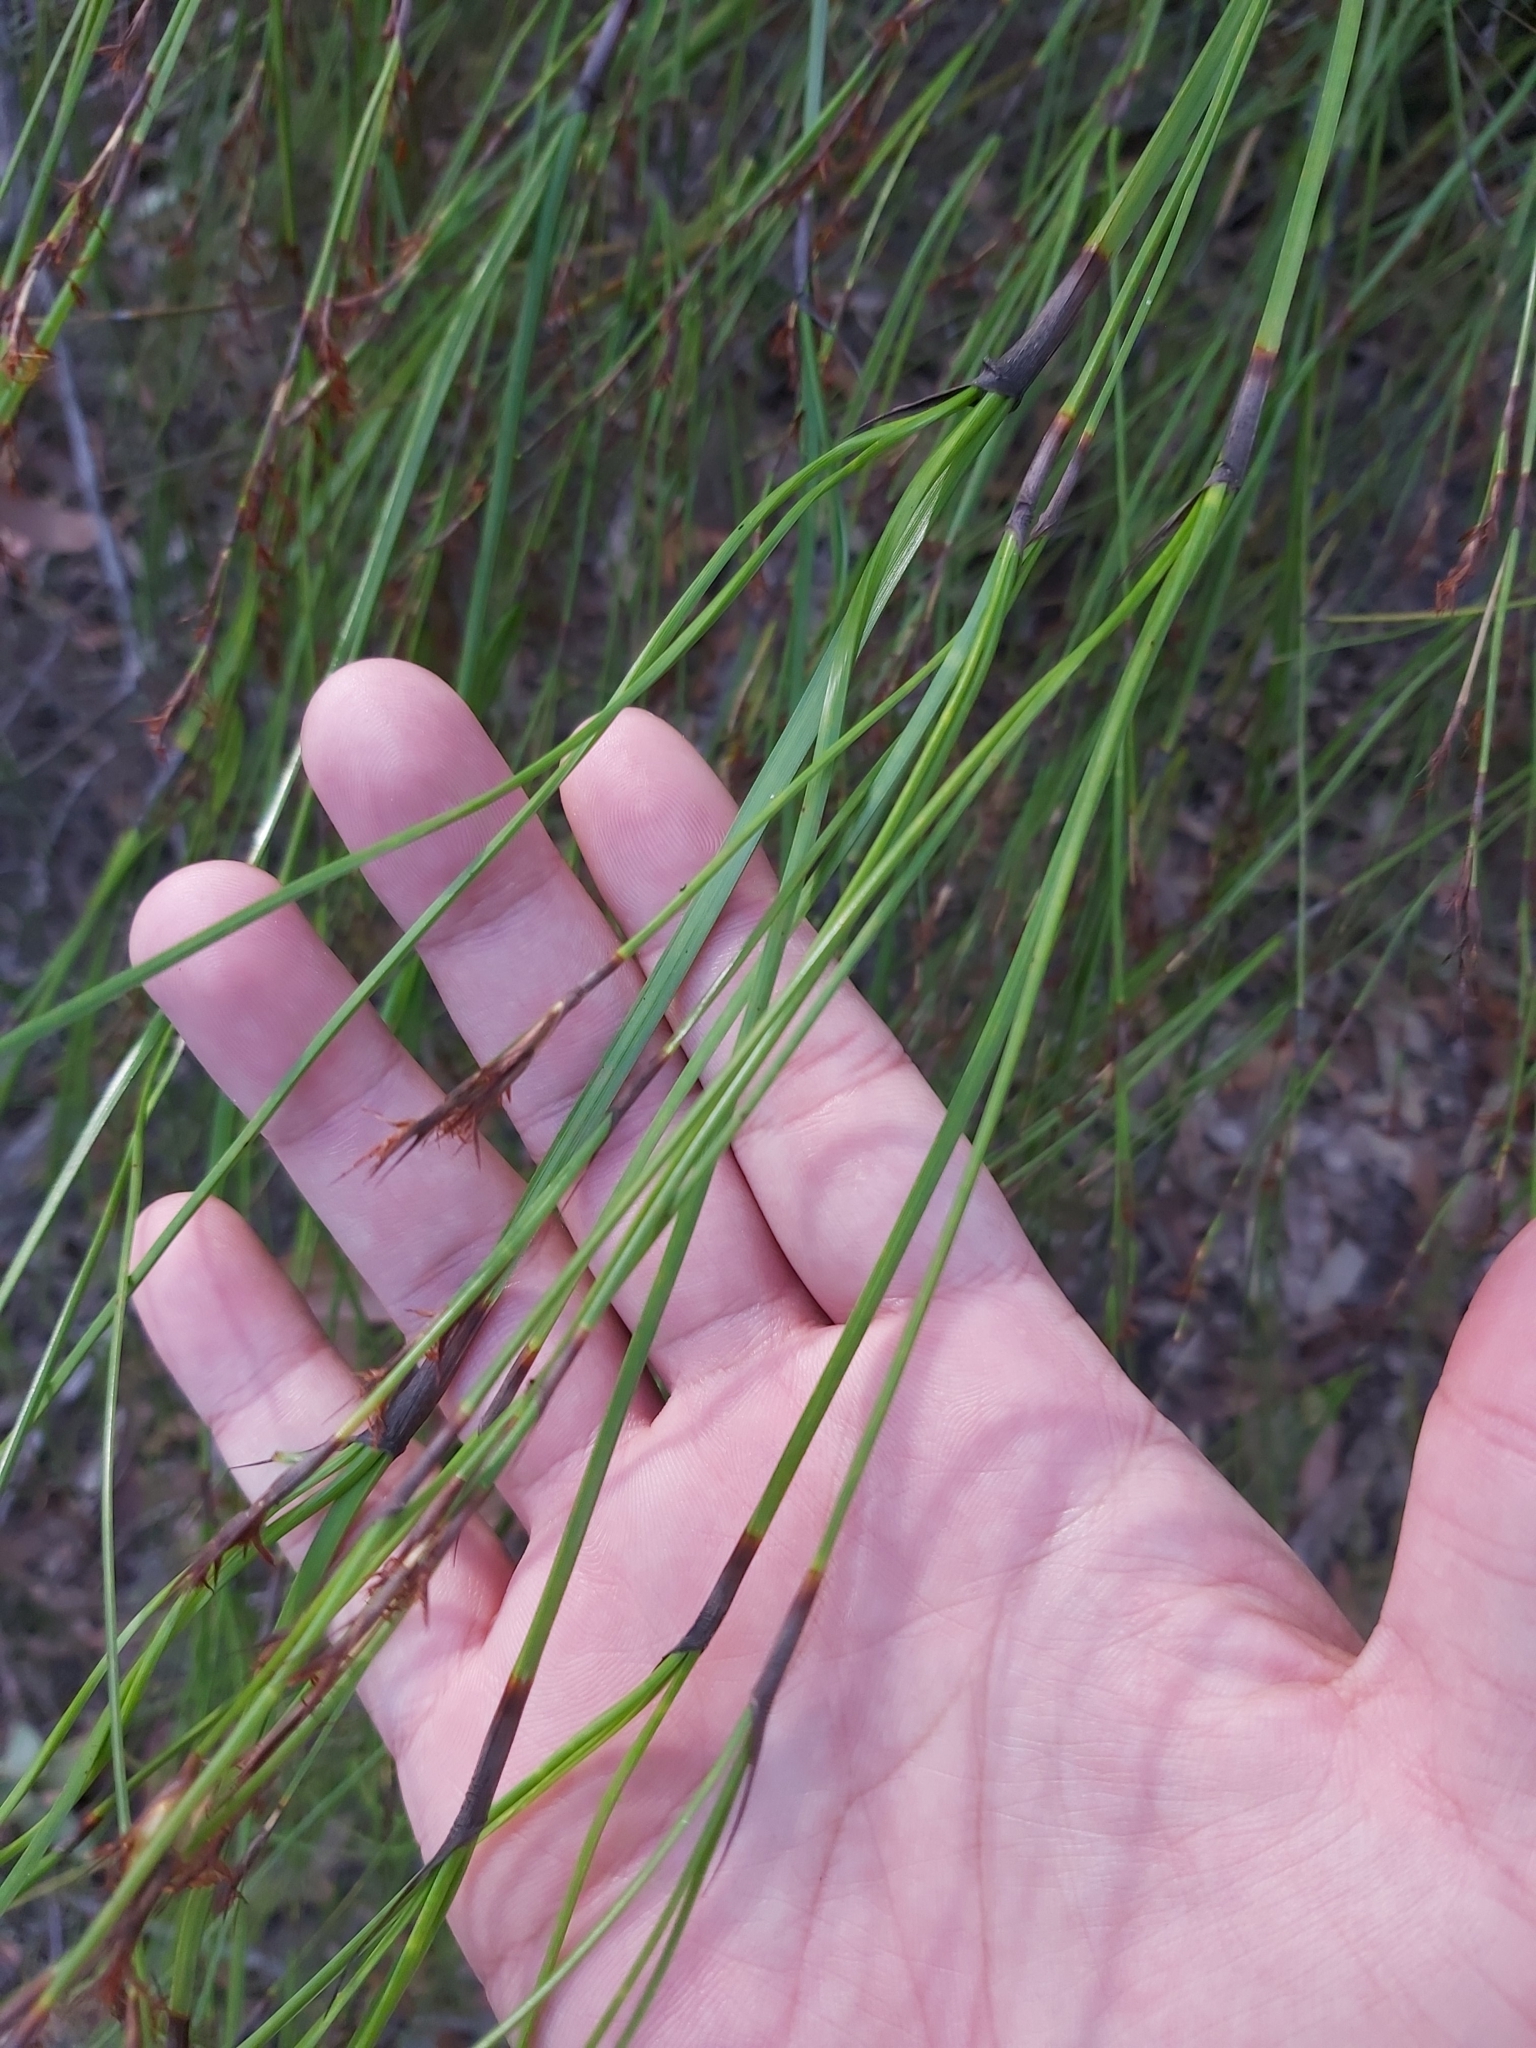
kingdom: Plantae
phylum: Tracheophyta
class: Liliopsida
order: Poales
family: Cyperaceae
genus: Caustis
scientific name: Caustis pentandra
